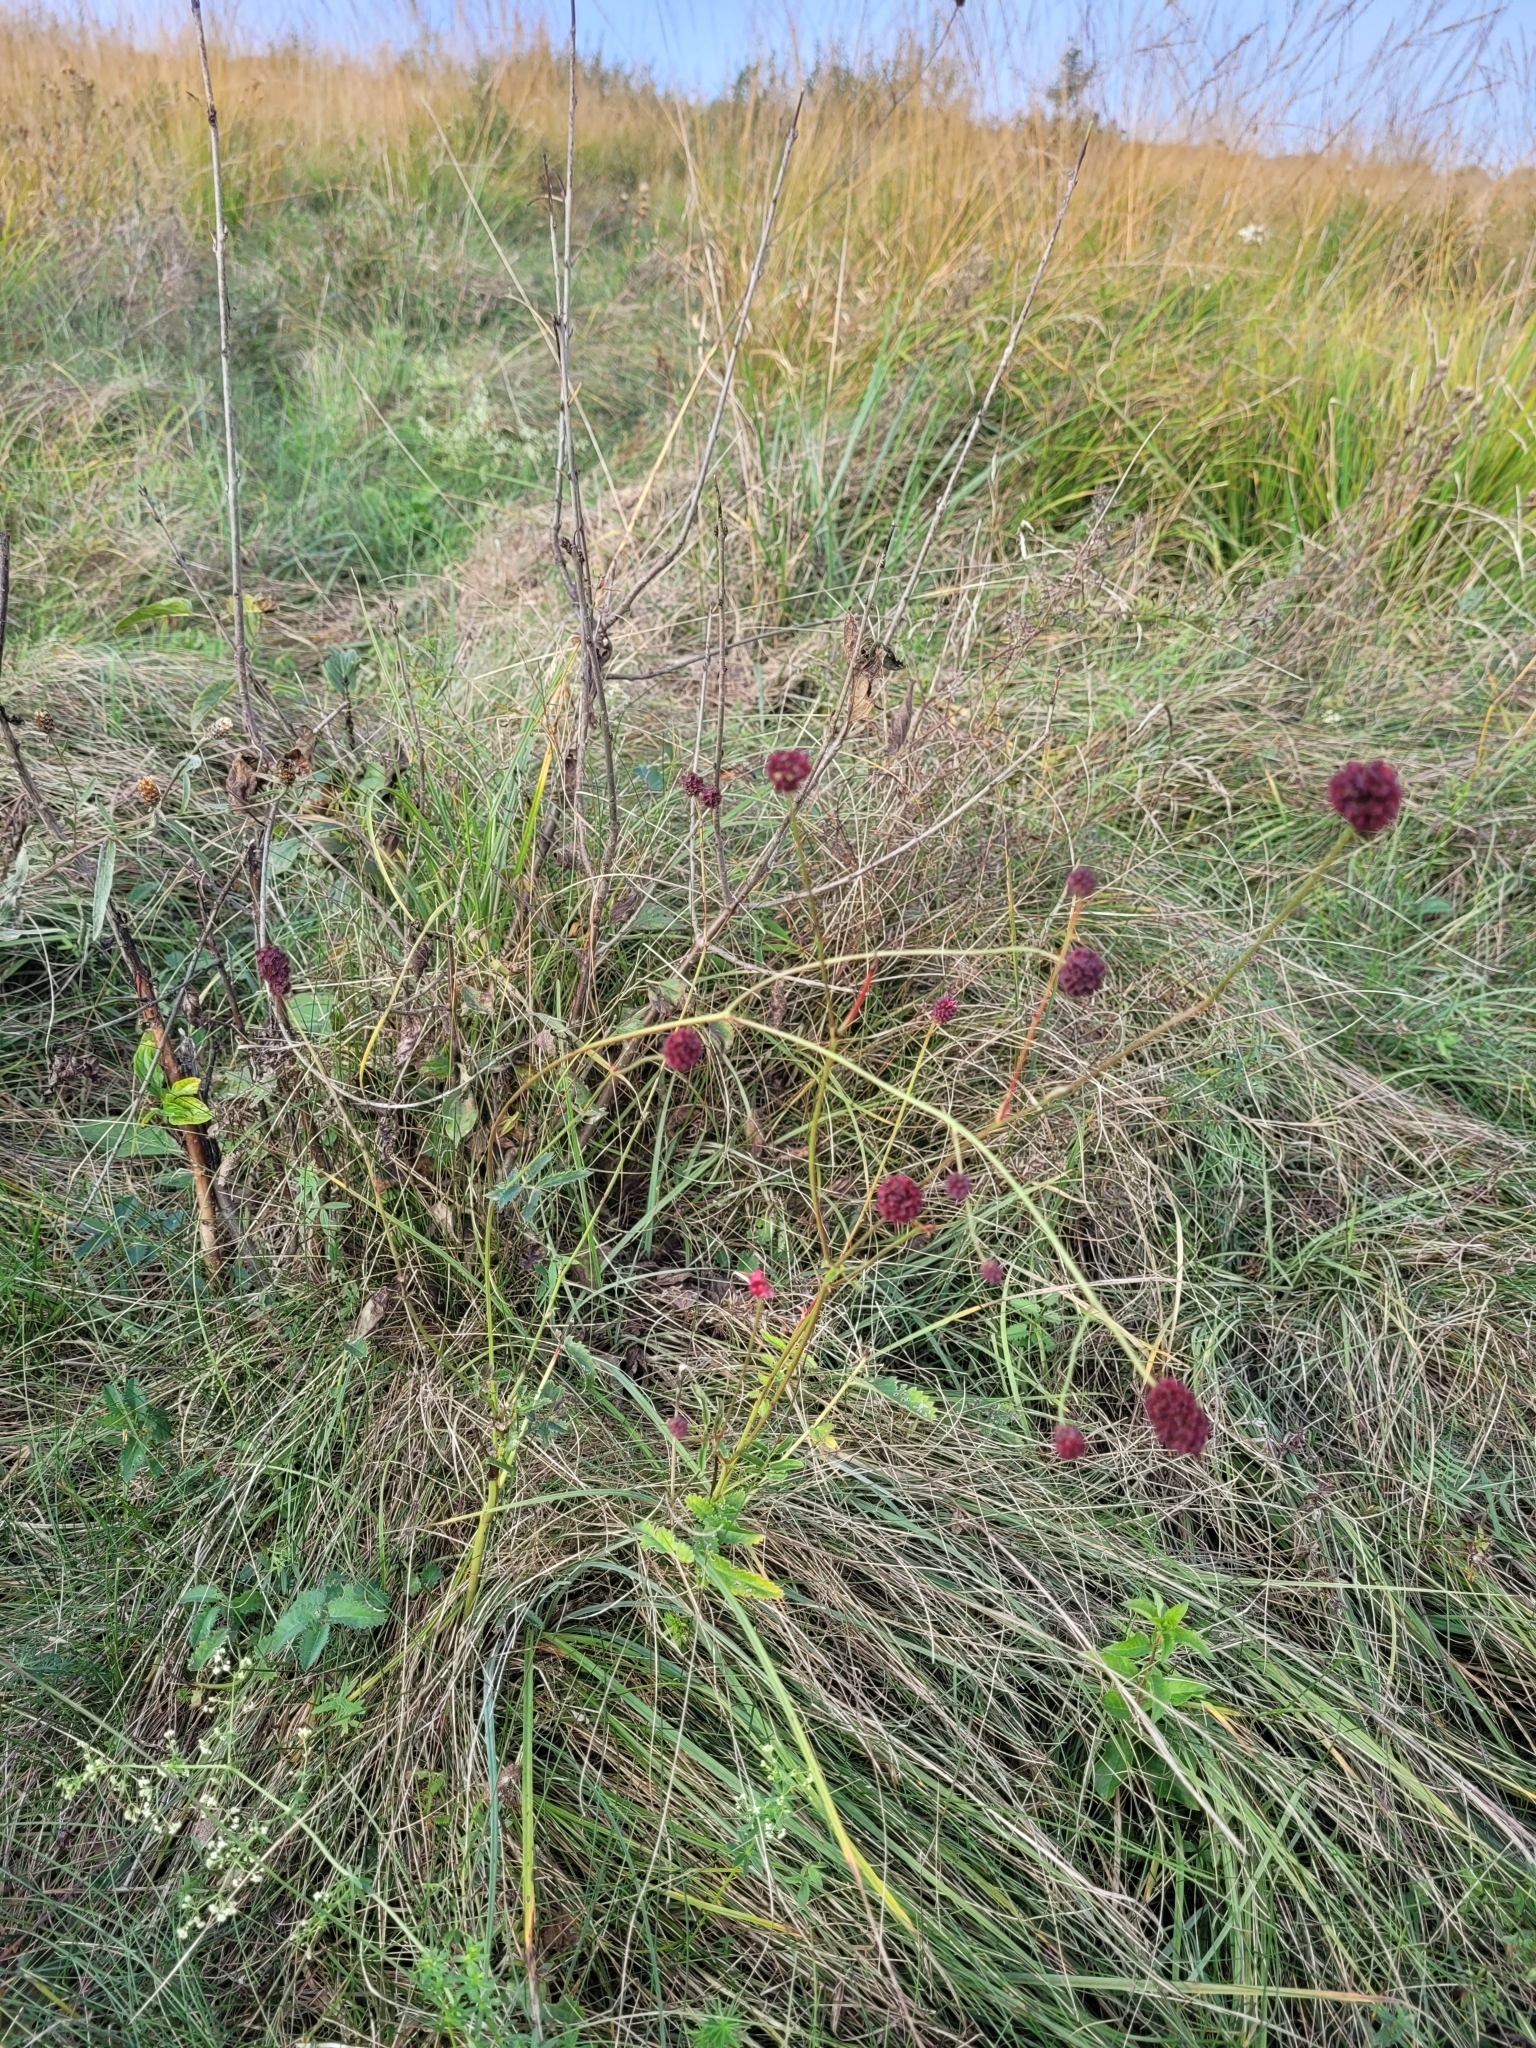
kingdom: Plantae
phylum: Tracheophyta
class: Magnoliopsida
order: Rosales
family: Rosaceae
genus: Sanguisorba
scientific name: Sanguisorba officinalis
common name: Great burnet
